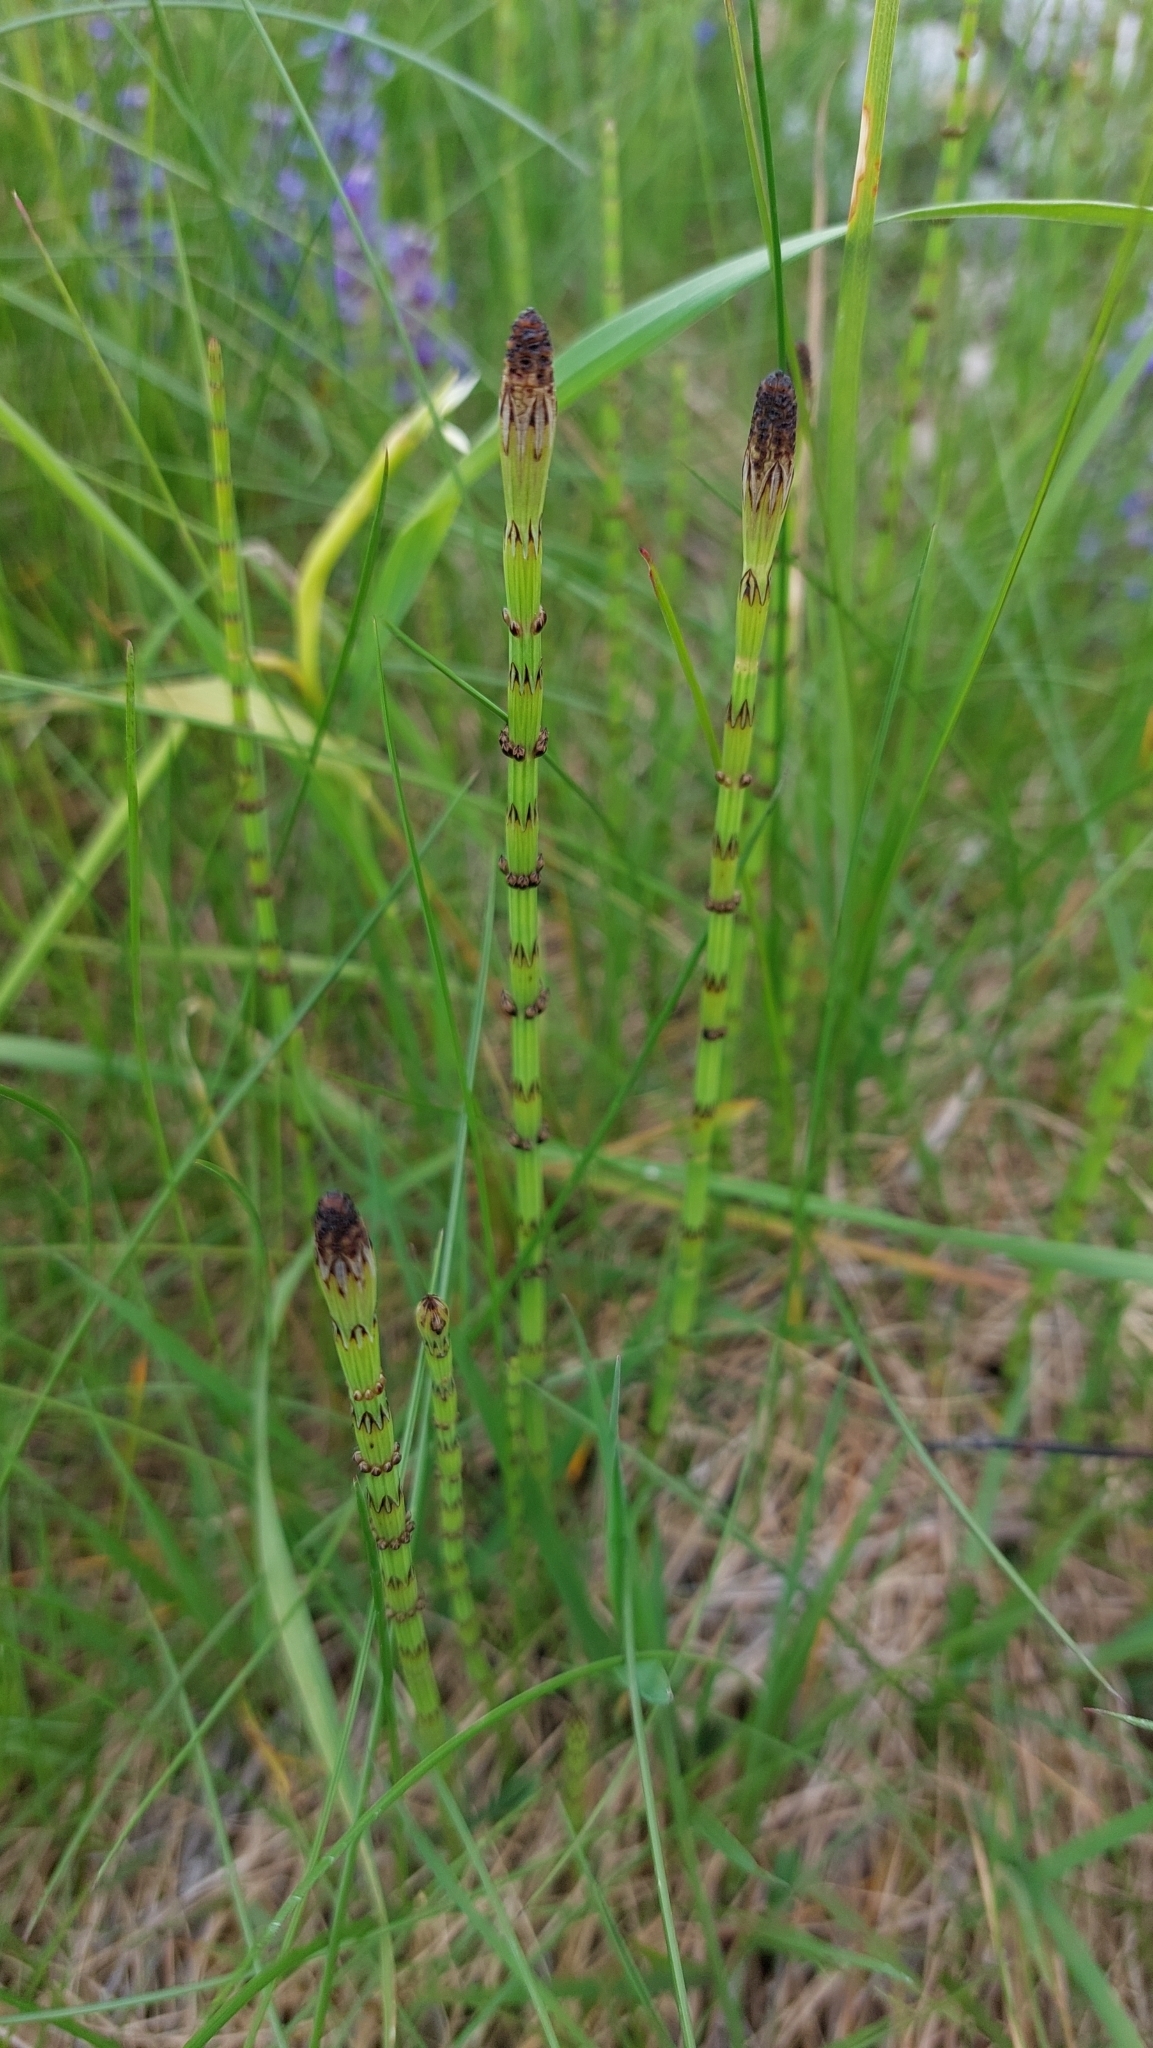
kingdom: Plantae
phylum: Tracheophyta
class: Polypodiopsida
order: Equisetales
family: Equisetaceae
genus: Equisetum
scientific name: Equisetum palustre
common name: Marsh horsetail
